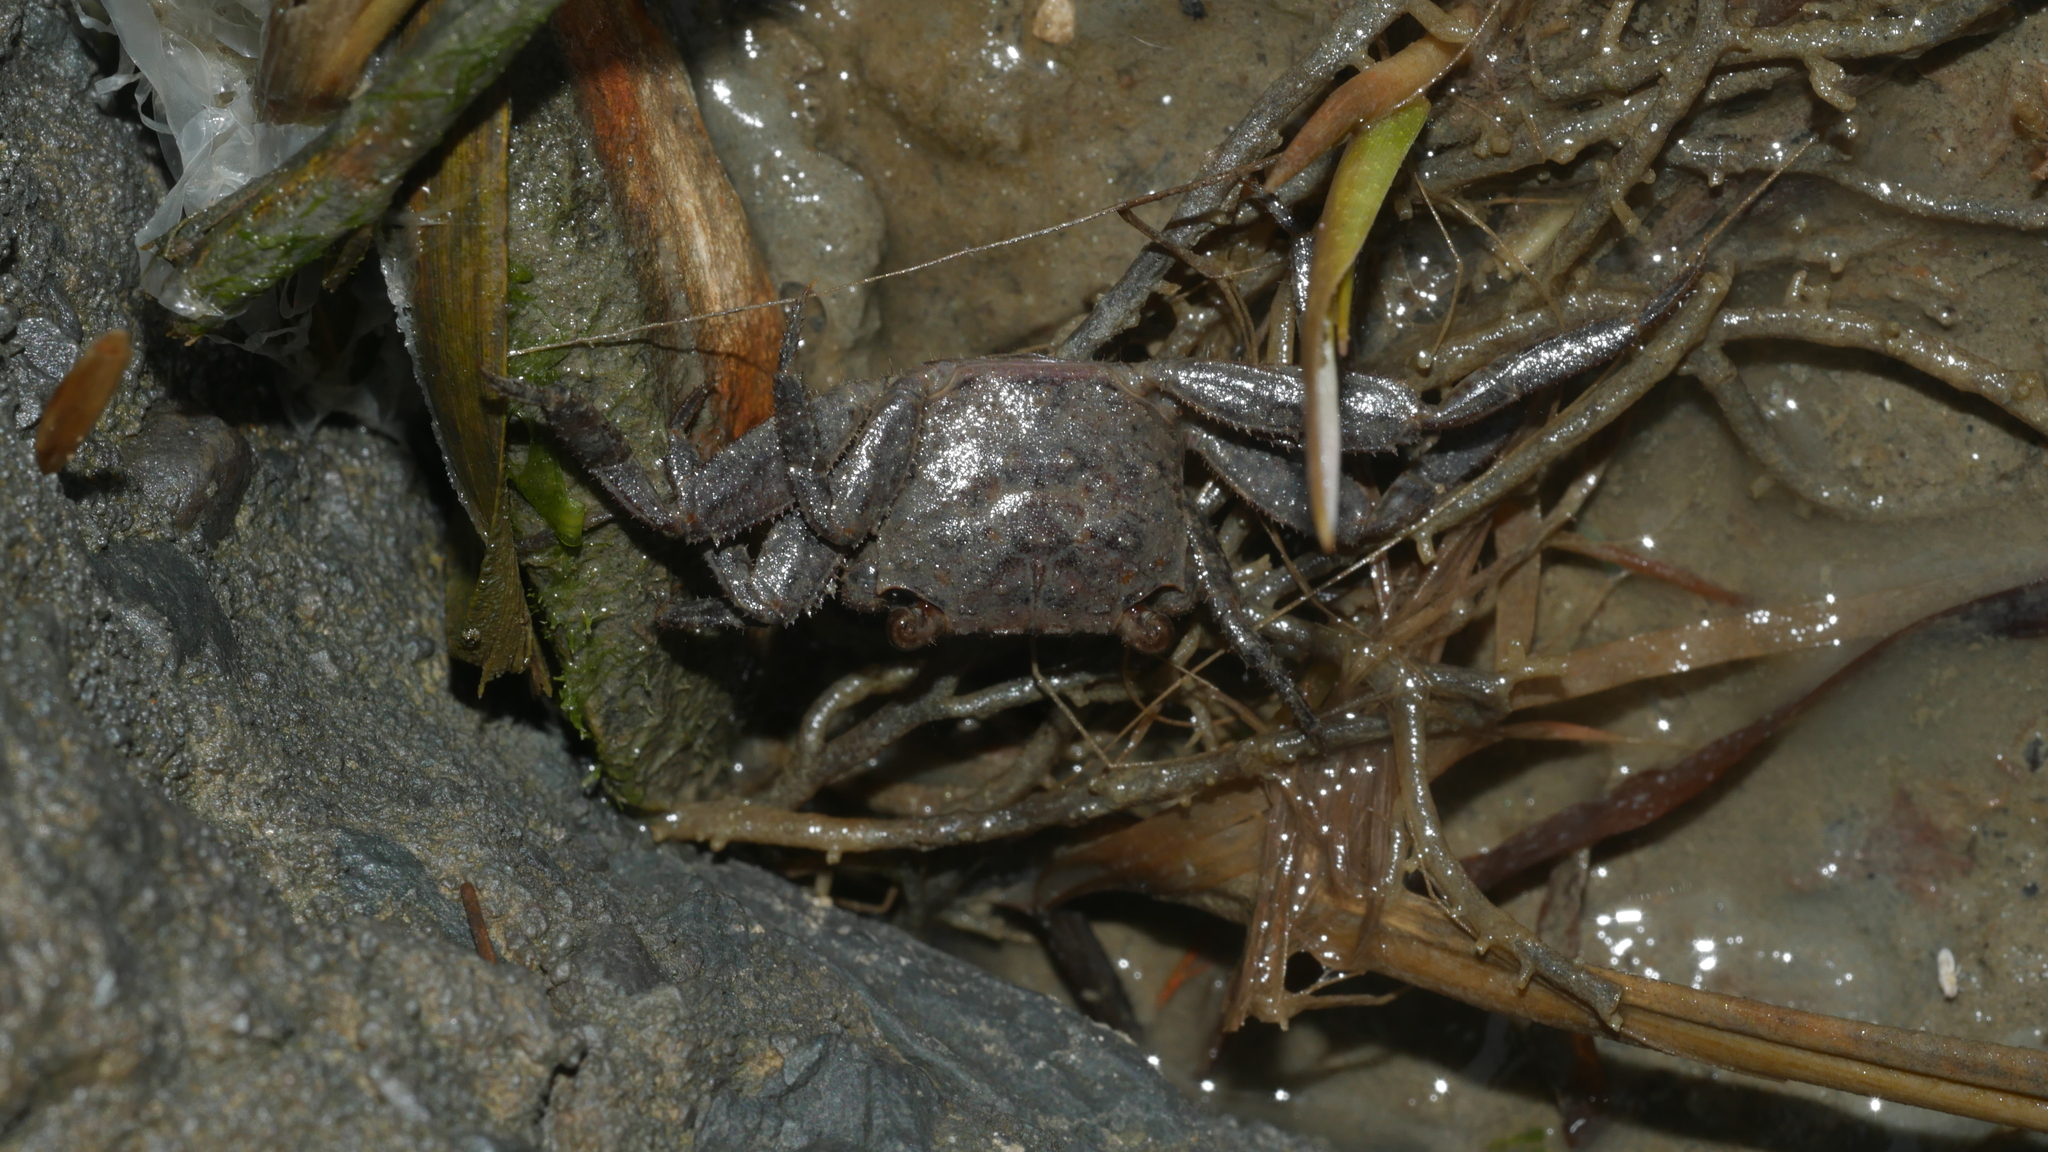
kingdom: Animalia
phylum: Arthropoda
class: Malacostraca
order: Decapoda
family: Sesarmidae
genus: Armases
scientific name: Armases cinereum
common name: Squareback marsh crab
